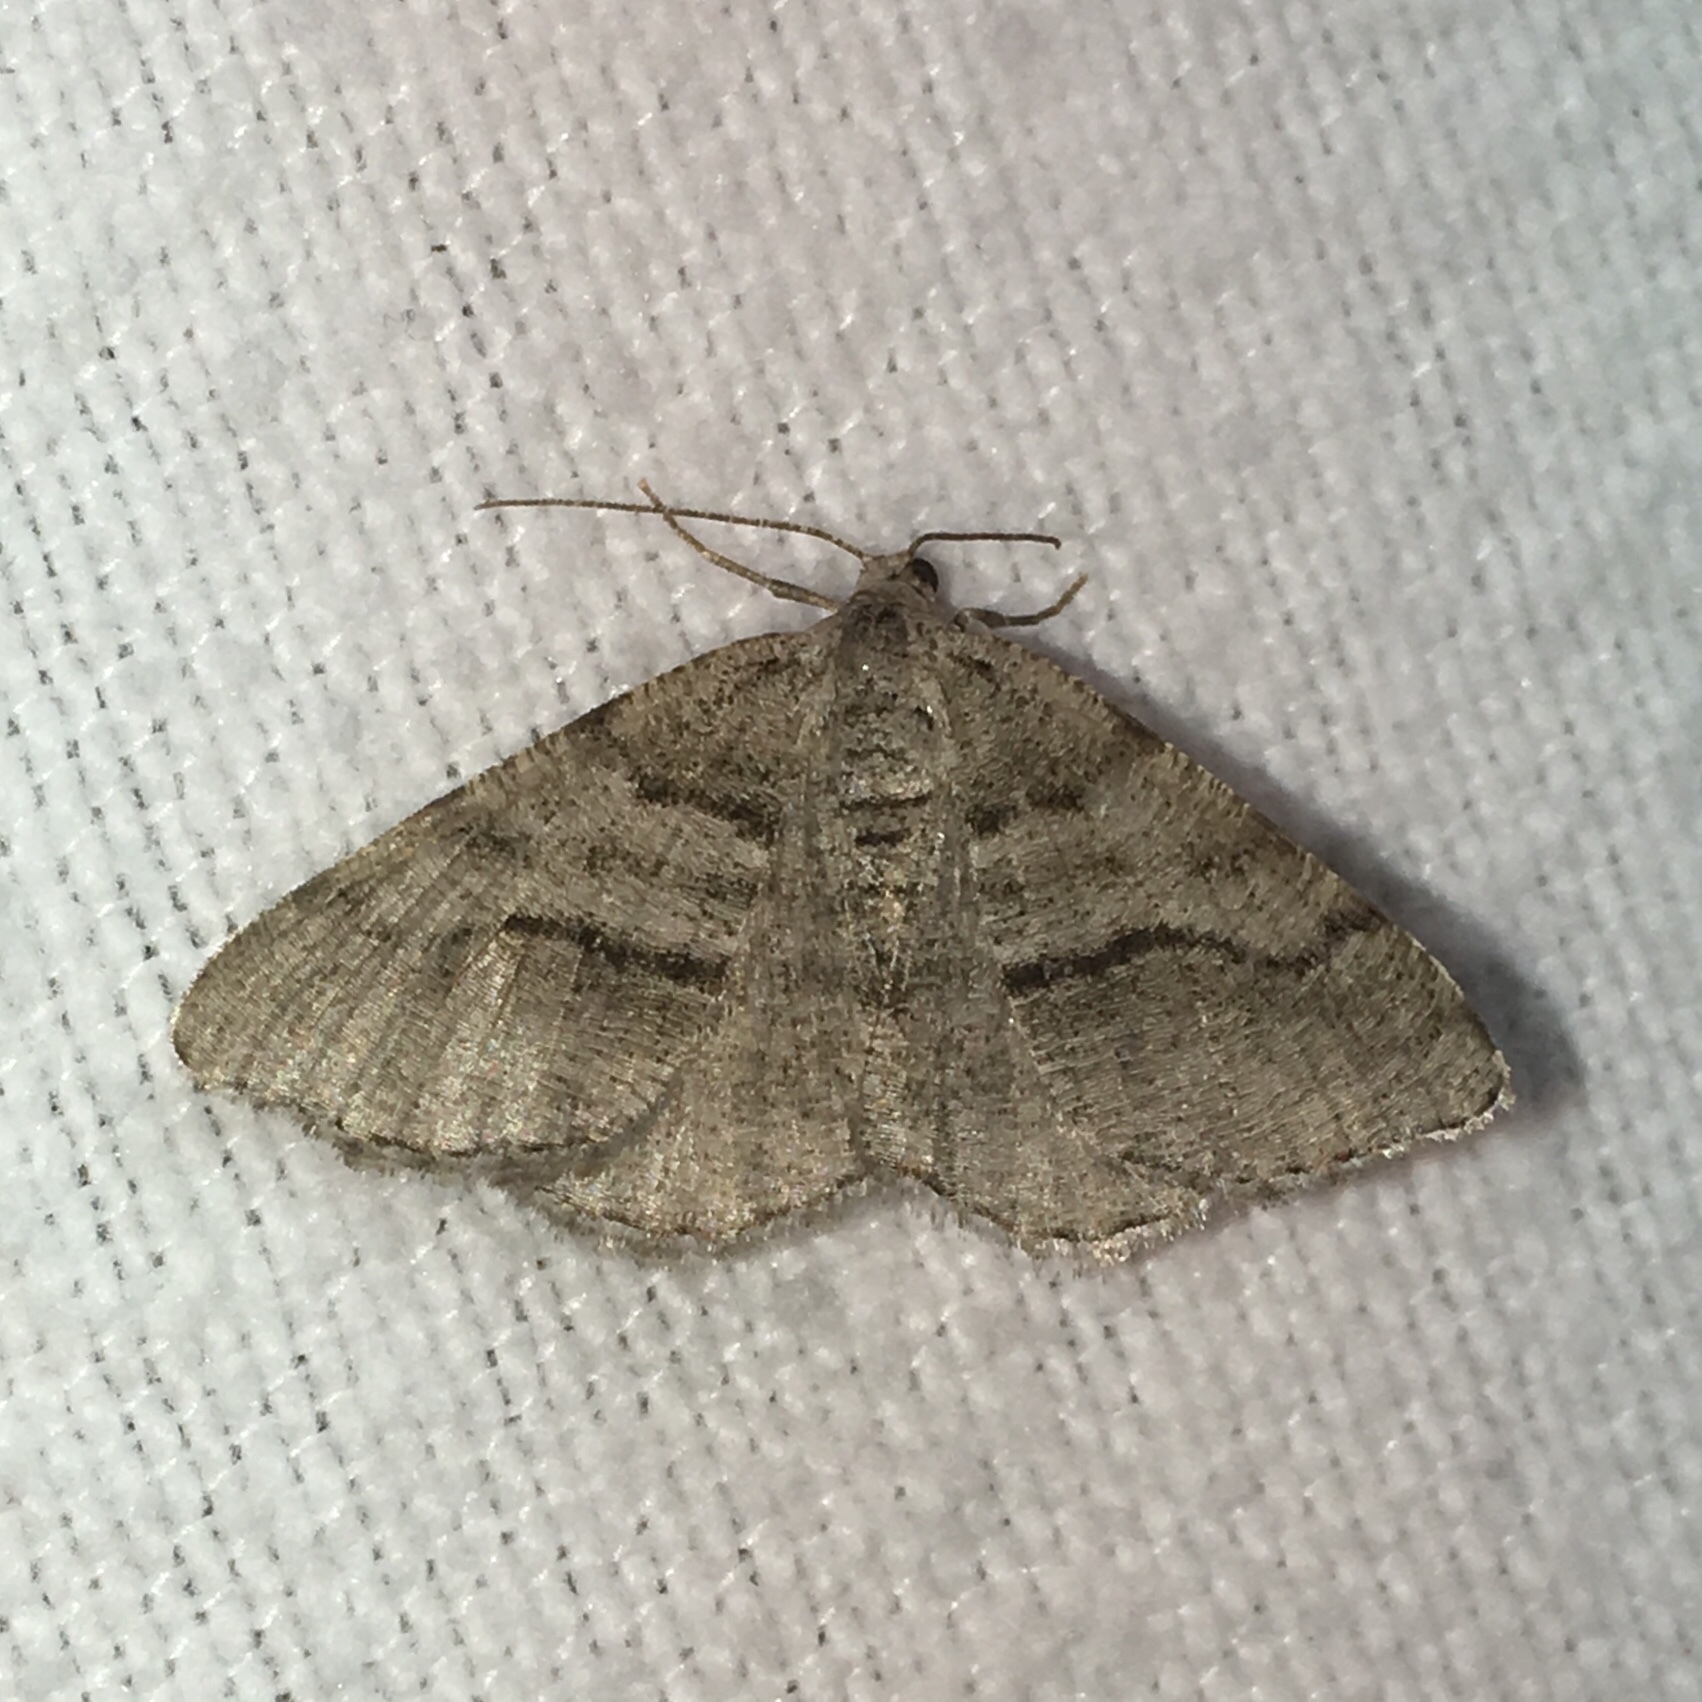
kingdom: Animalia
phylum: Arthropoda
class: Insecta
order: Lepidoptera
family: Geometridae
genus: Digrammia
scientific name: Digrammia continuata
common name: Curve-lined angle
